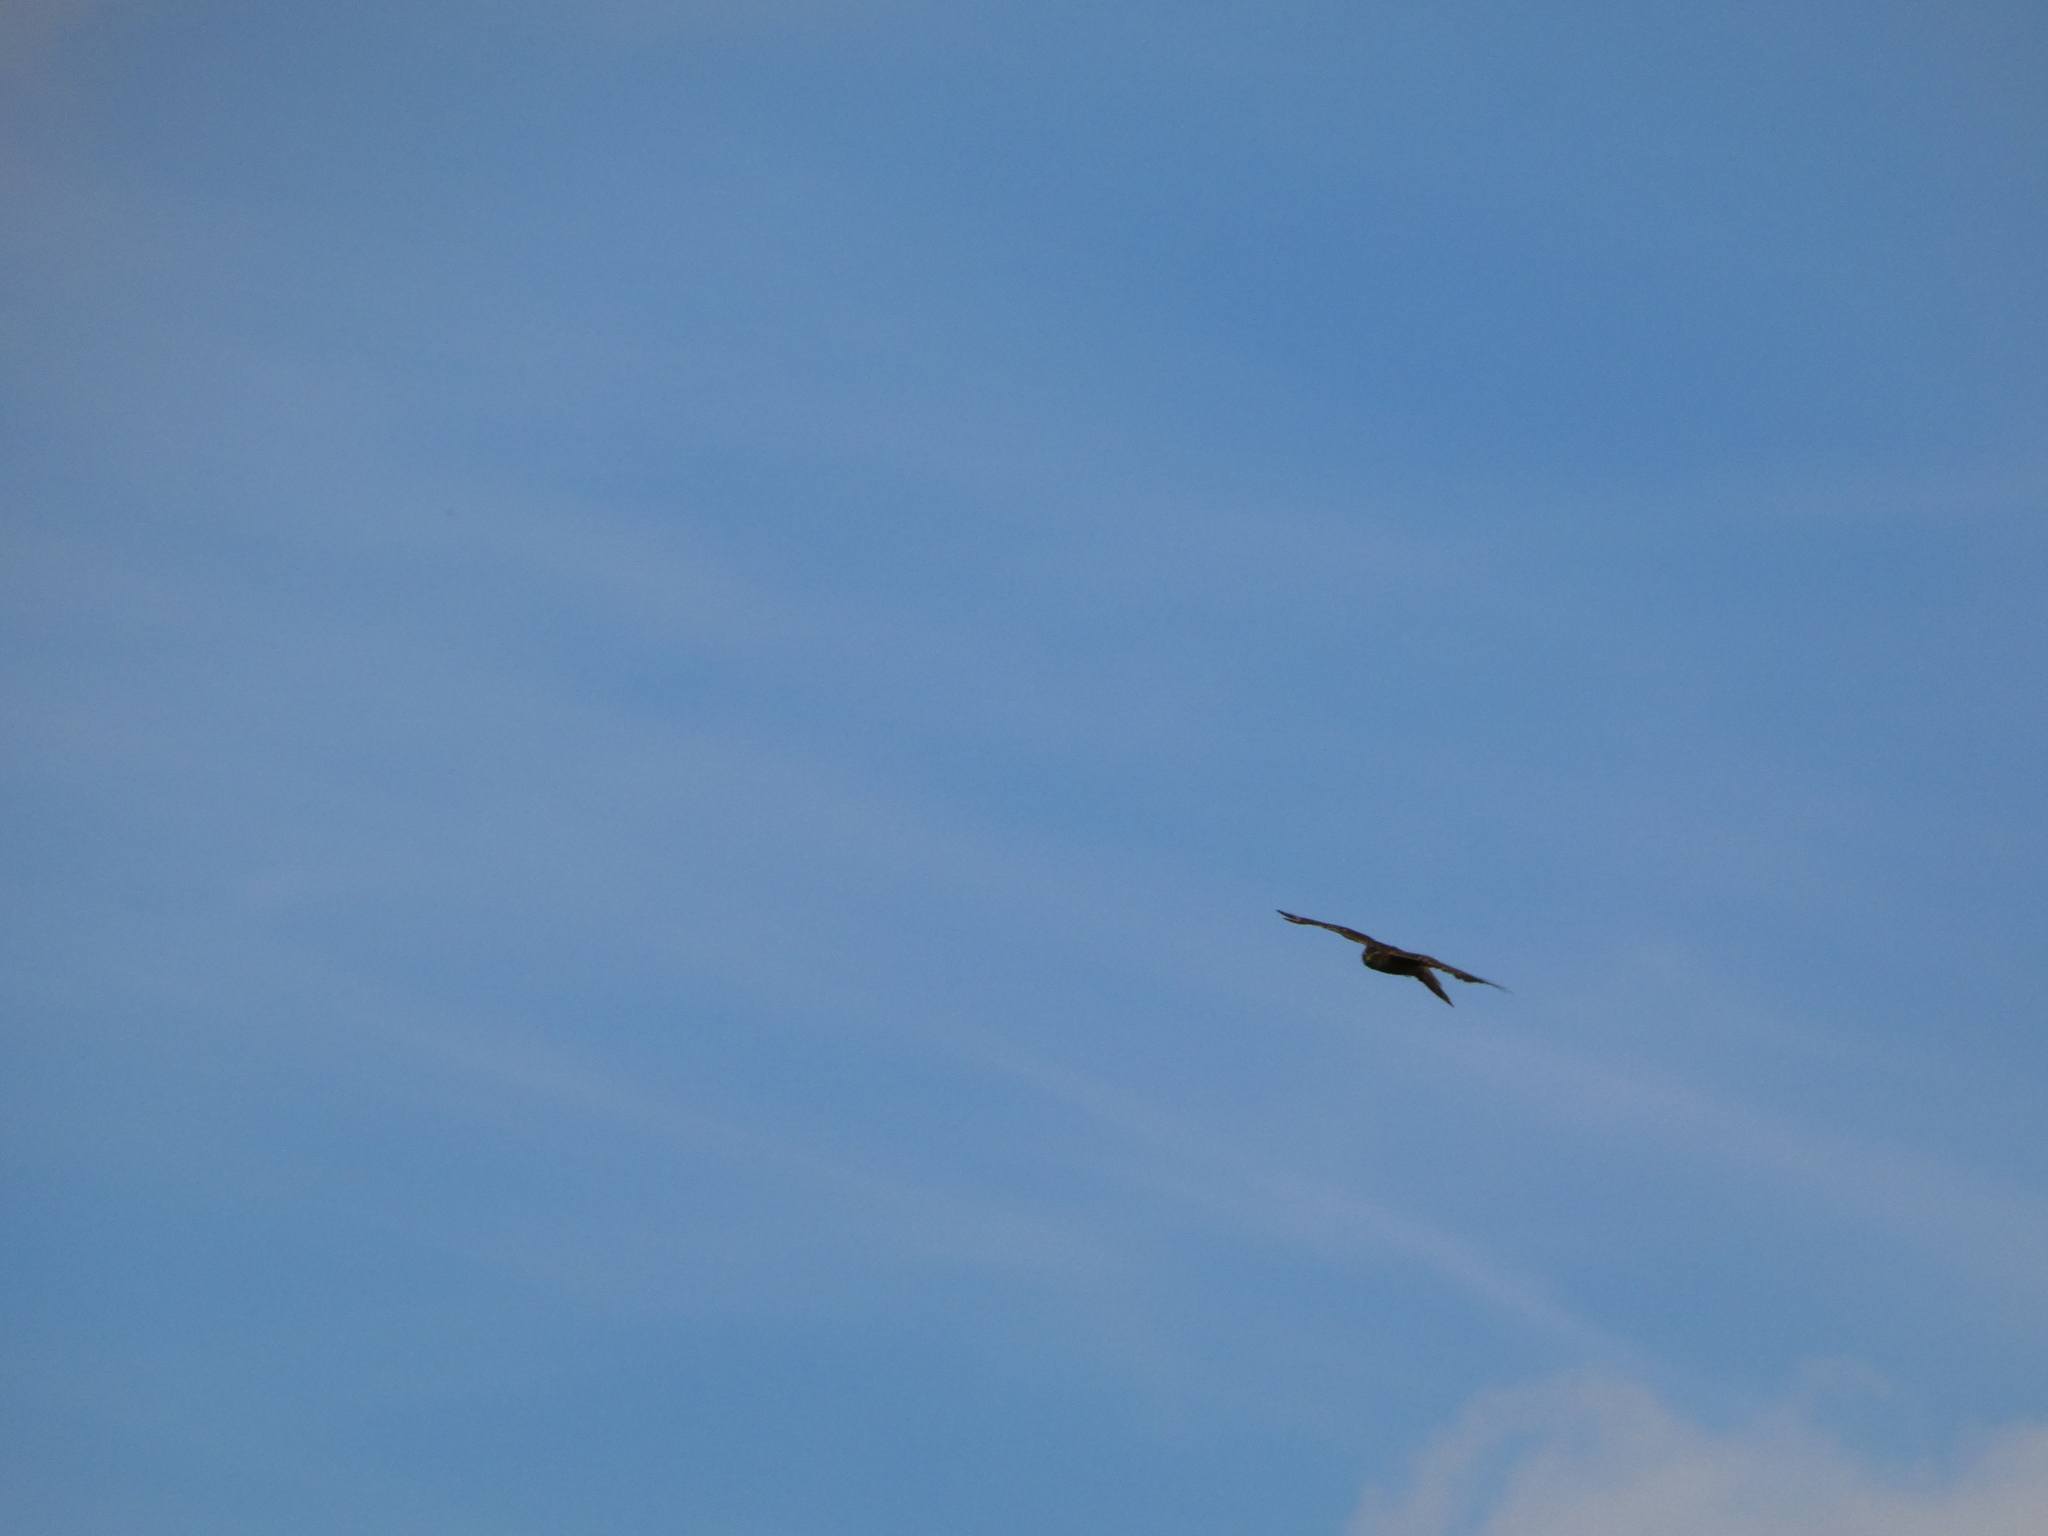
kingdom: Animalia
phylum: Chordata
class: Aves
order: Accipitriformes
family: Accipitridae
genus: Accipiter
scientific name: Accipiter nisus
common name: Eurasian sparrowhawk
